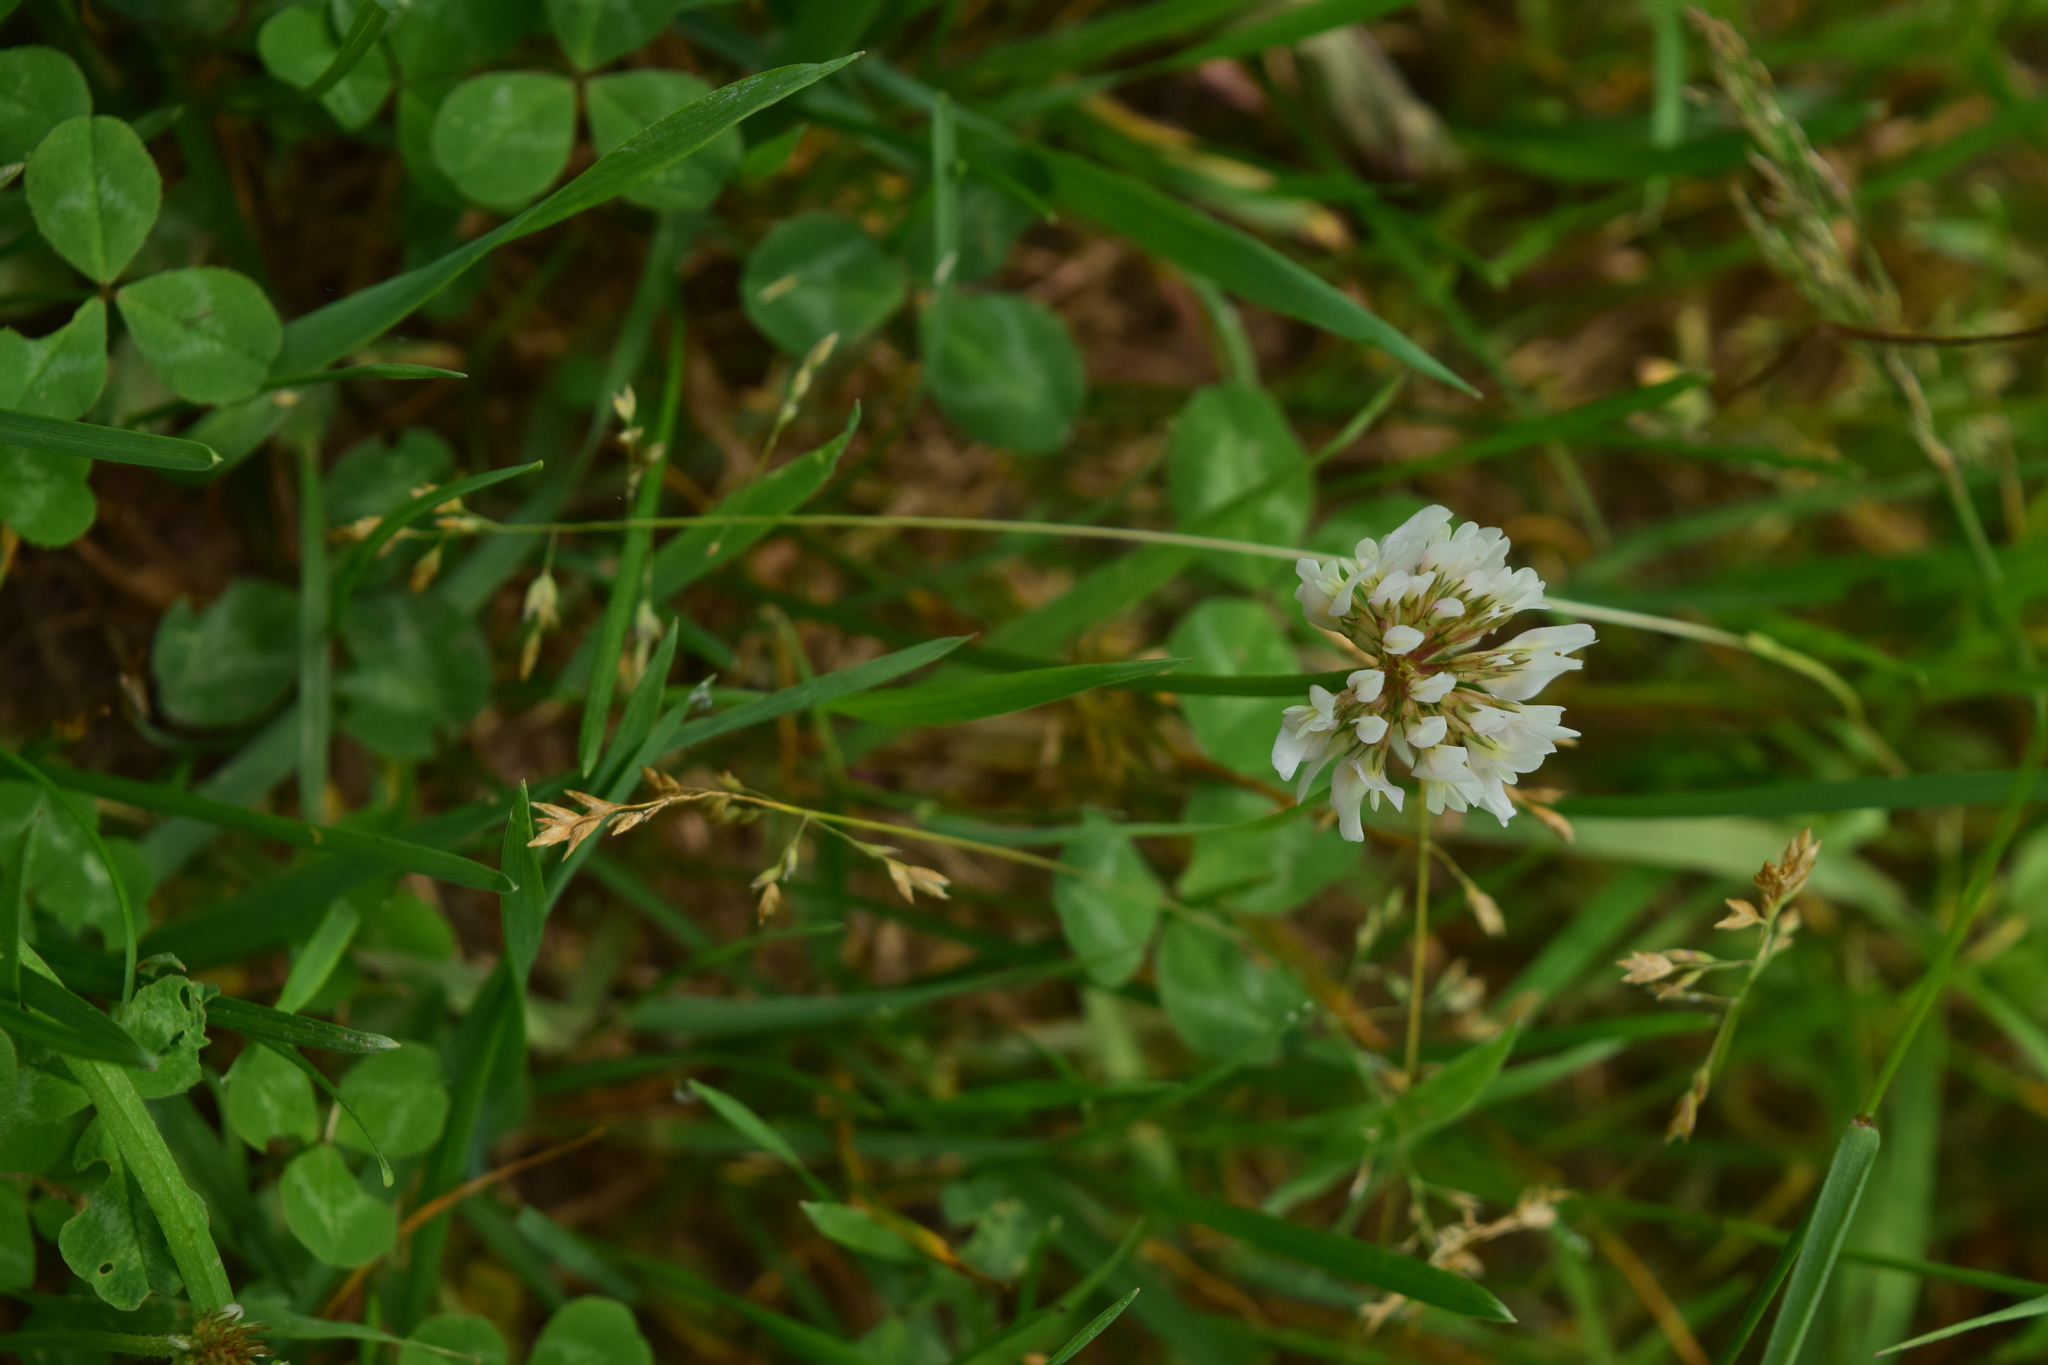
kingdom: Plantae
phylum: Tracheophyta
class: Magnoliopsida
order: Fabales
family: Fabaceae
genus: Trifolium
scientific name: Trifolium repens
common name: White clover
